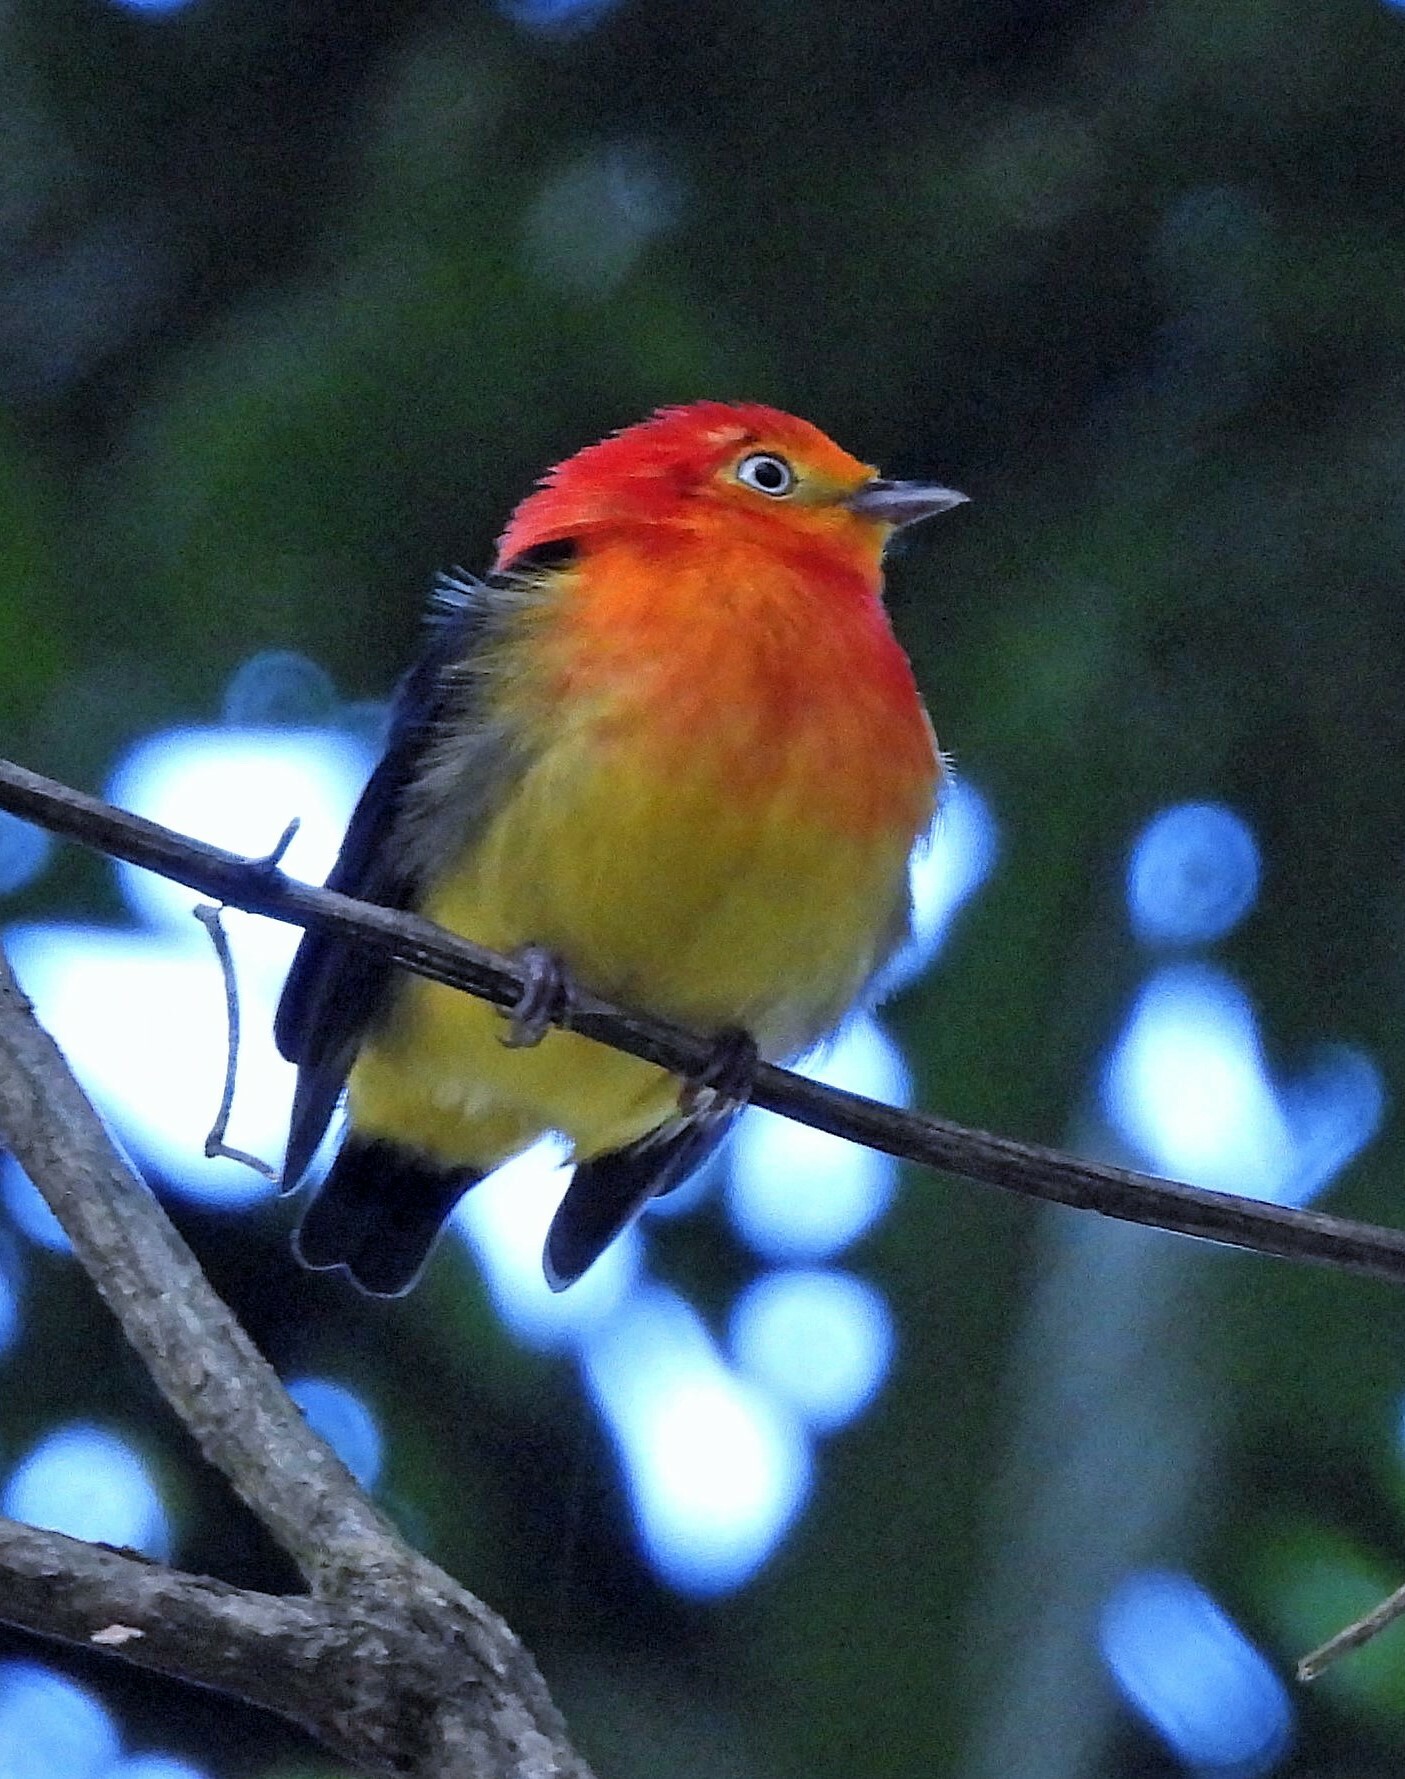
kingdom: Animalia
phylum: Chordata
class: Aves
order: Passeriformes
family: Pipridae
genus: Pipra
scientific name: Pipra fasciicauda
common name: Band-tailed manakin
